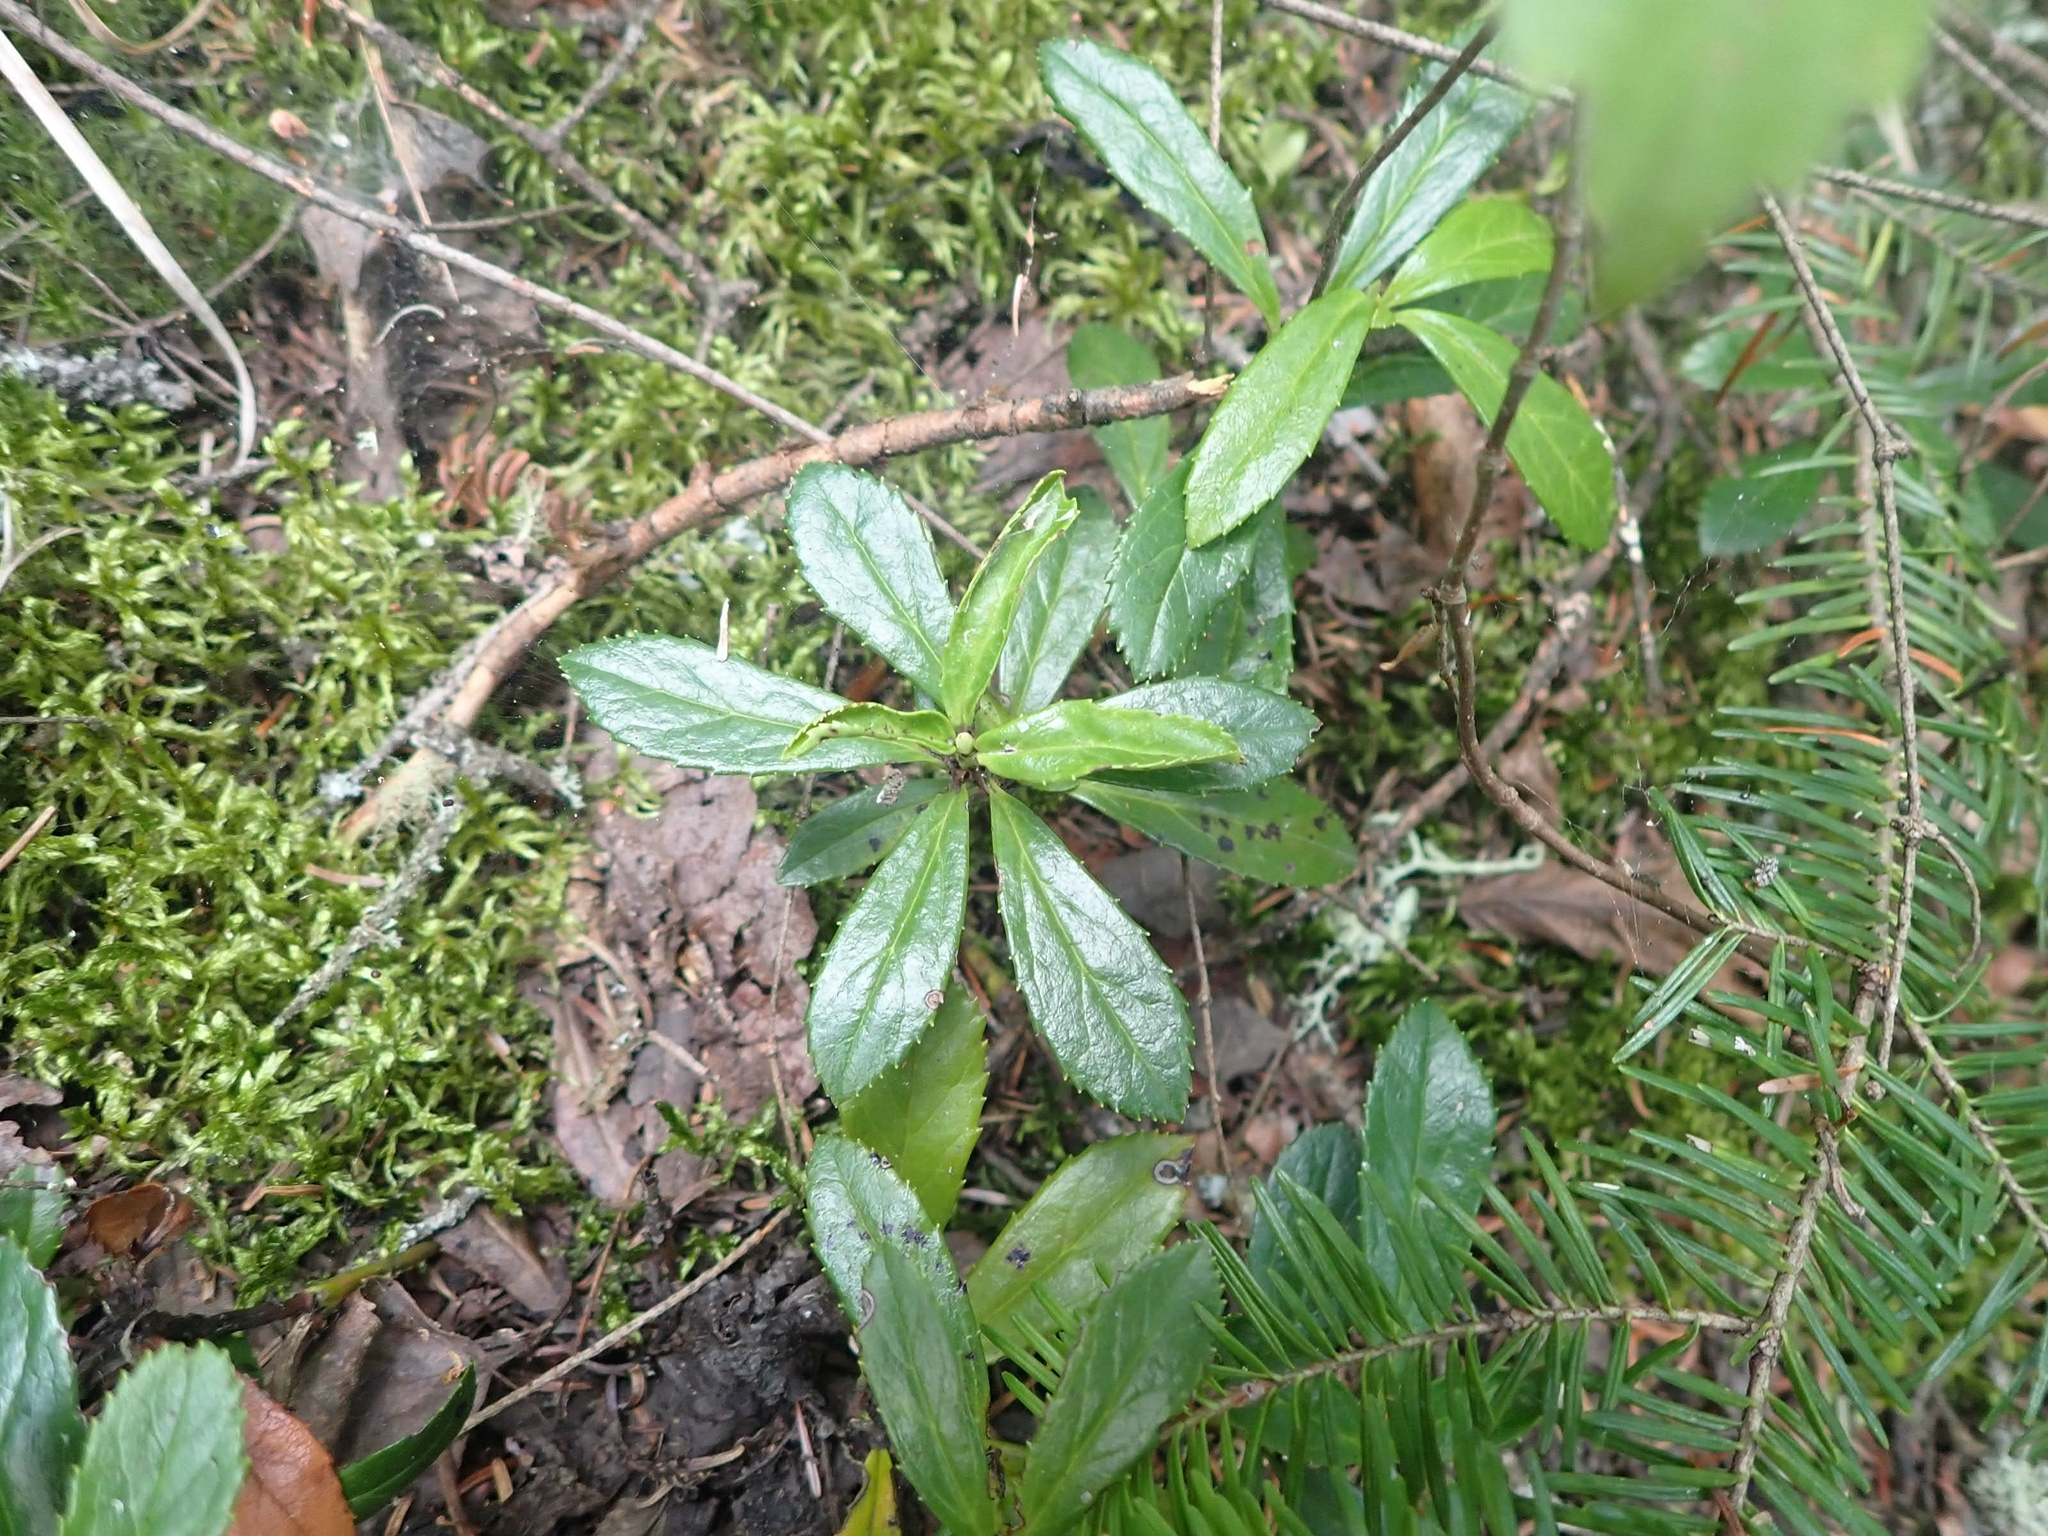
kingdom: Plantae
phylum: Tracheophyta
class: Magnoliopsida
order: Ericales
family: Ericaceae
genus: Chimaphila
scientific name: Chimaphila umbellata
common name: Pipsissewa
